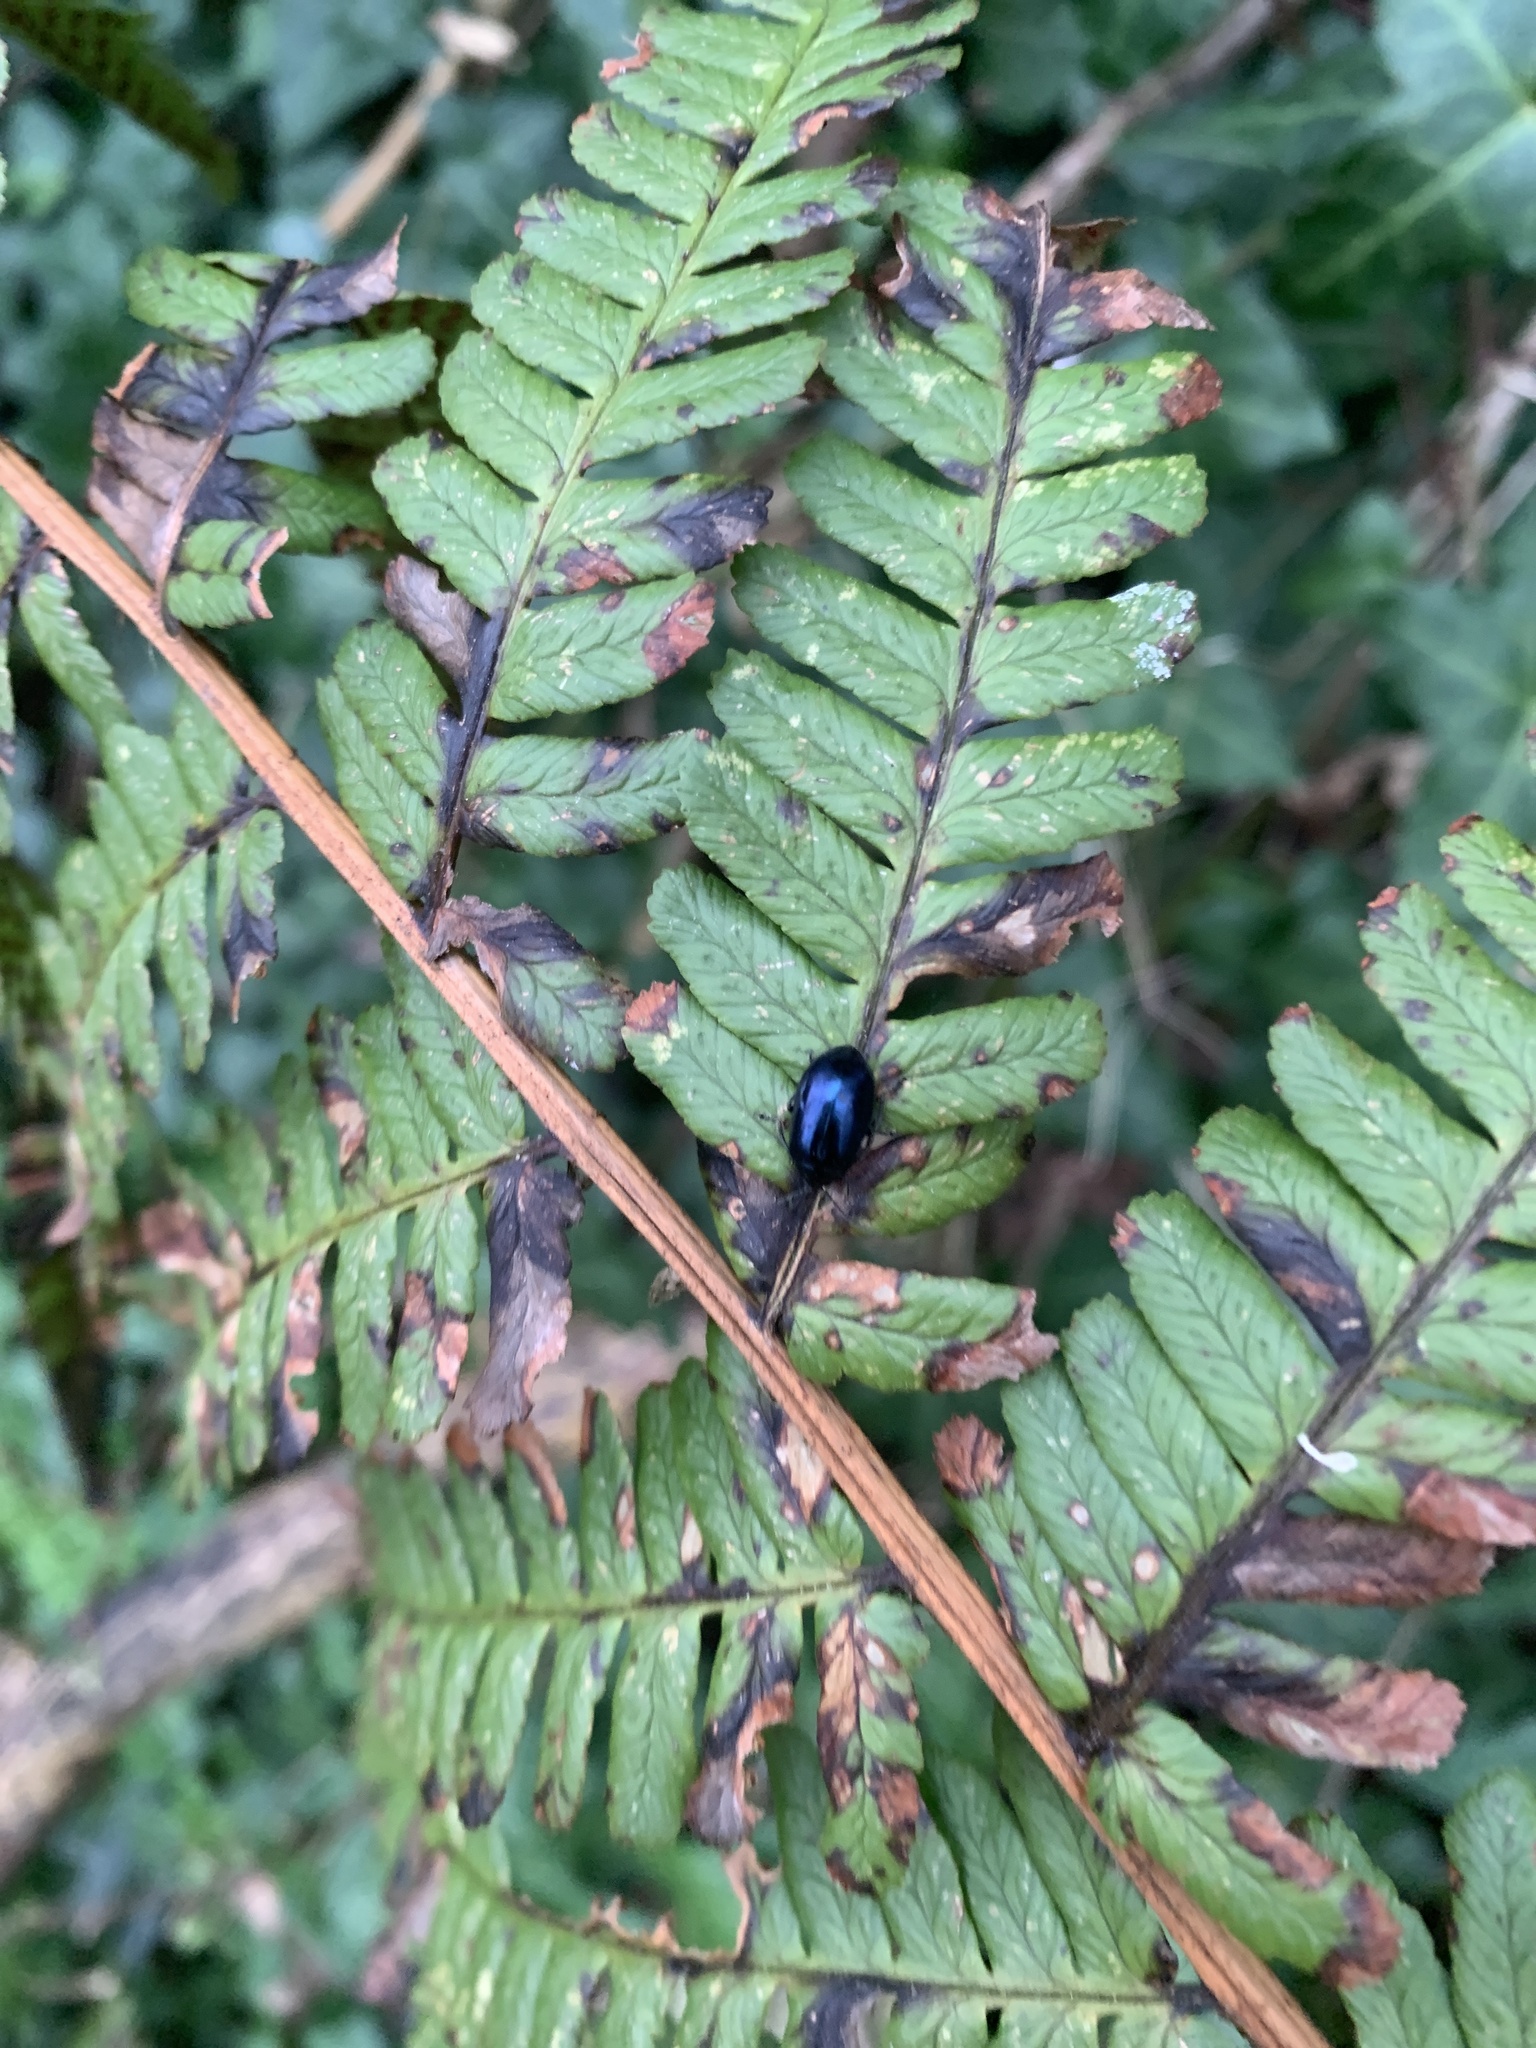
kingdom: Animalia
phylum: Arthropoda
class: Insecta
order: Coleoptera
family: Chrysomelidae
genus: Agelastica
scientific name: Agelastica alni
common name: Alder leaf beetle
